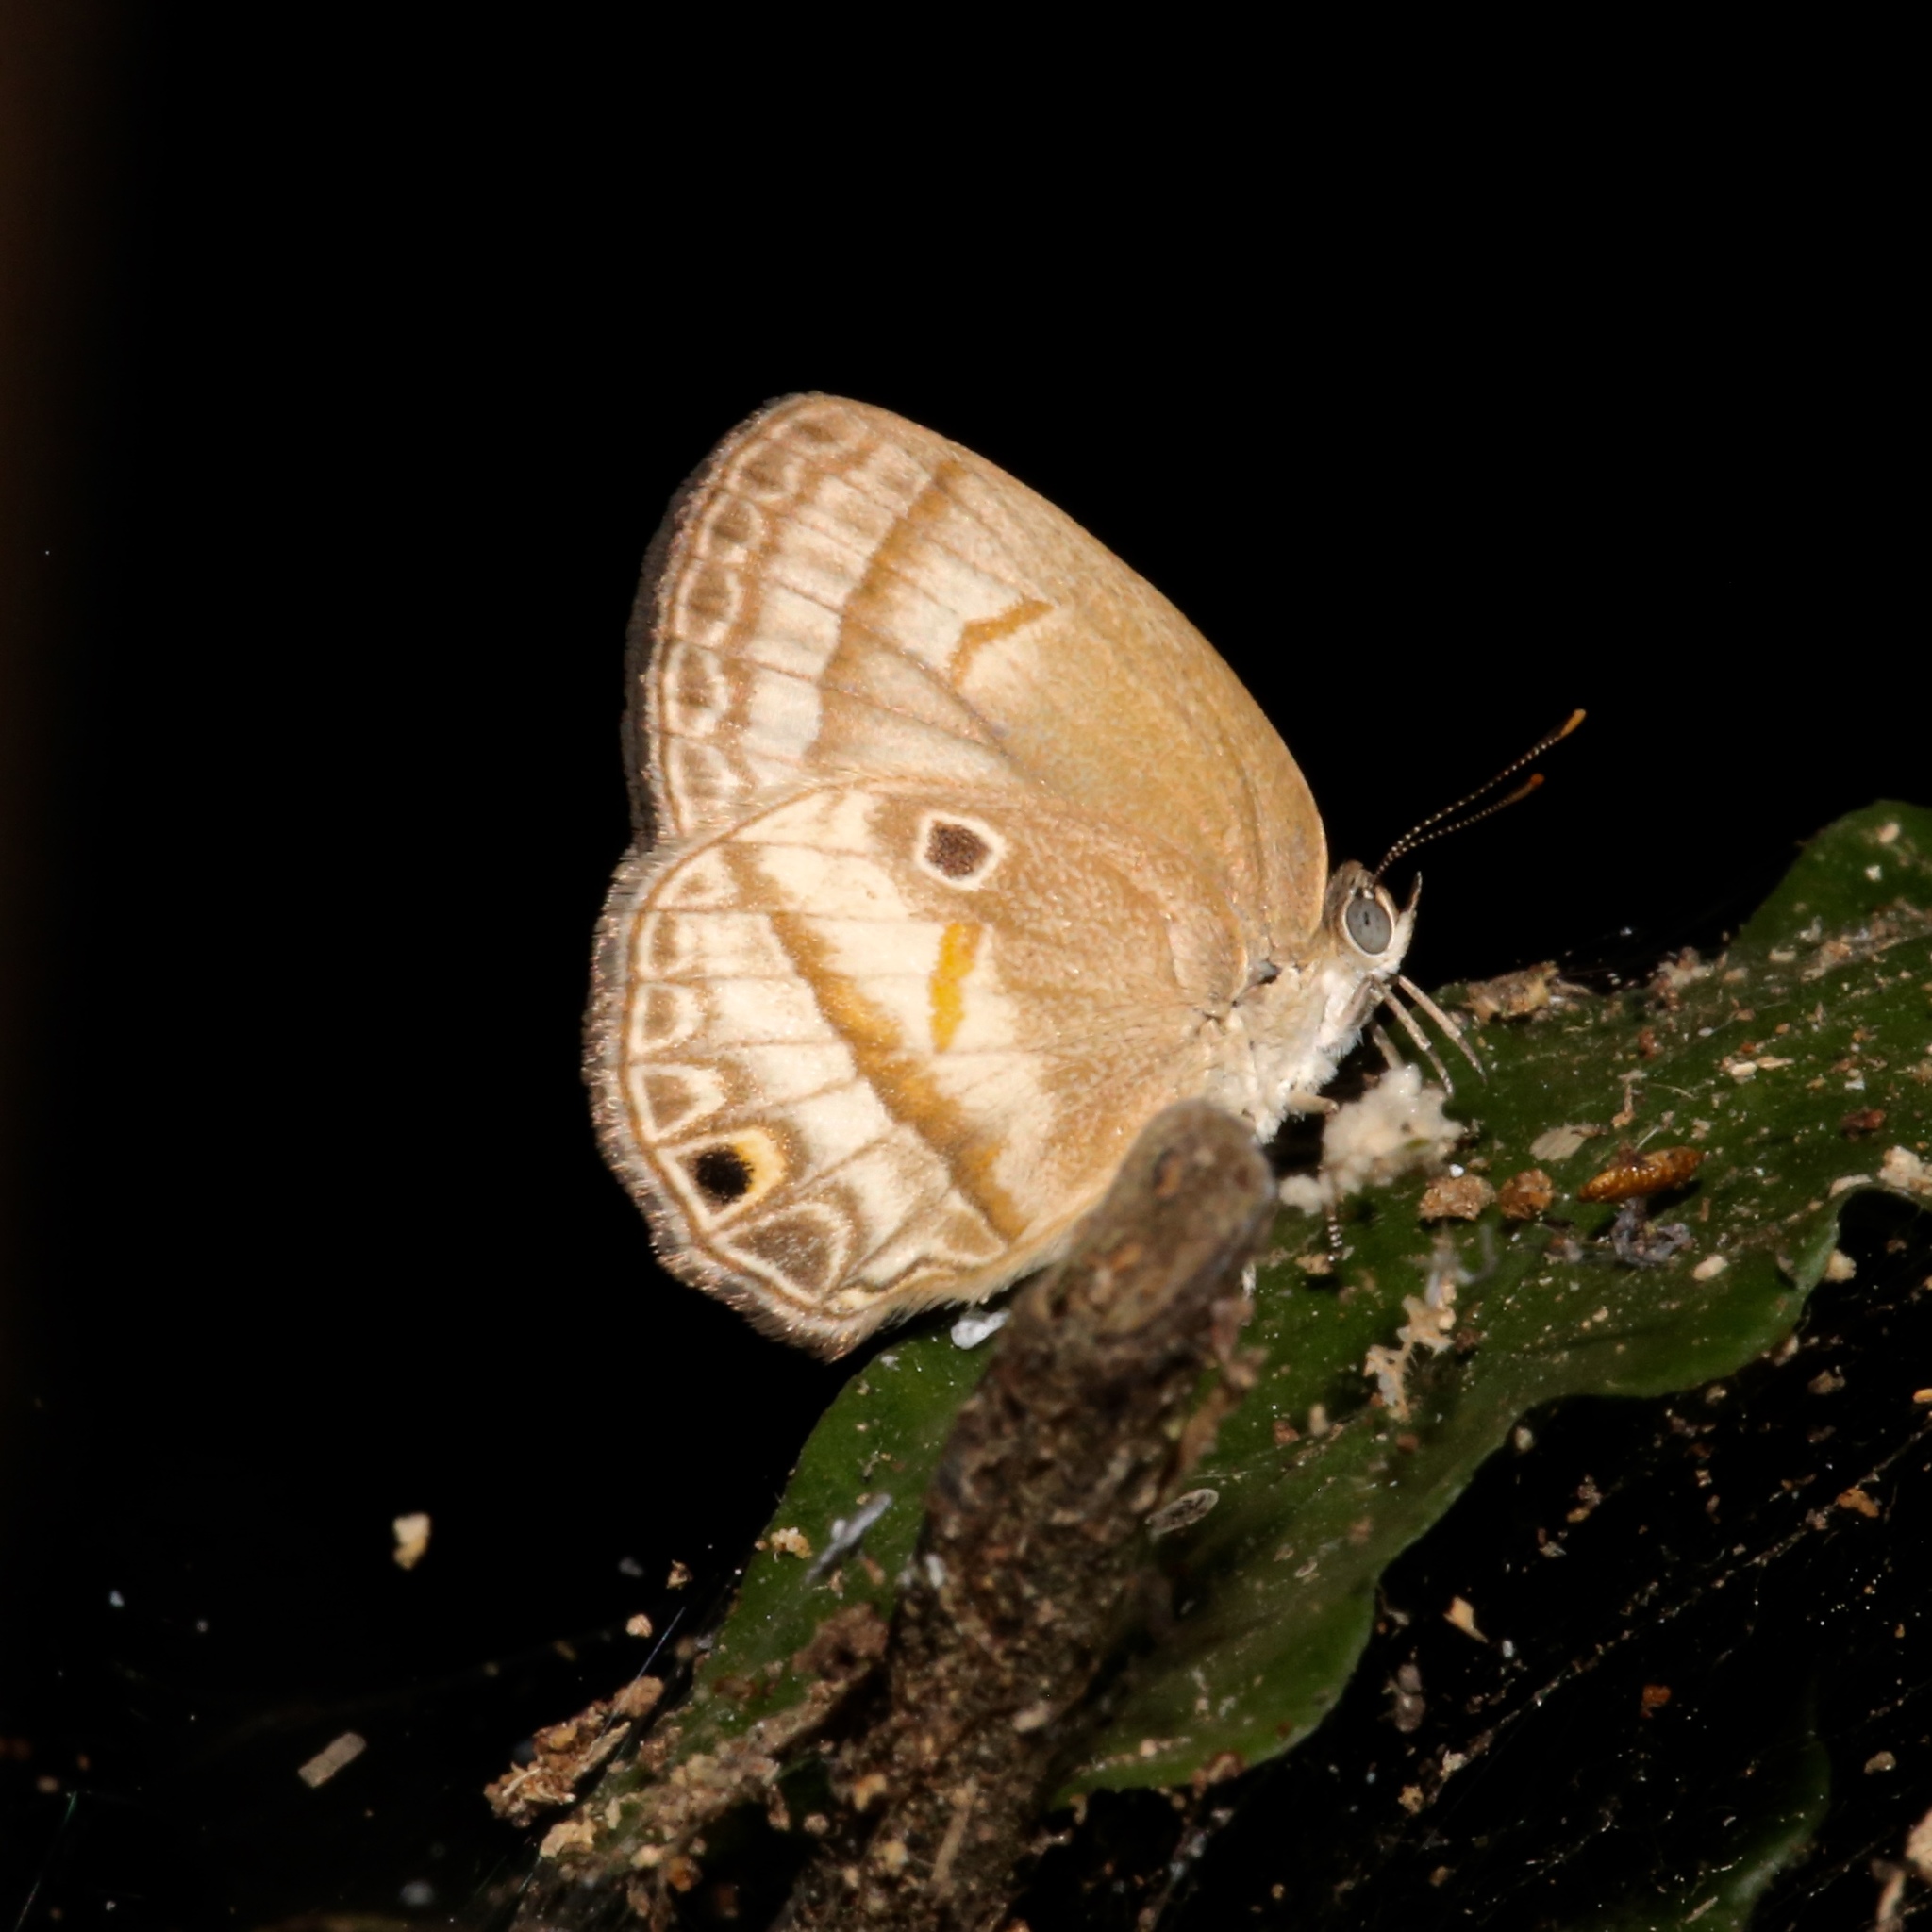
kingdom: Animalia
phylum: Arthropoda
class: Insecta
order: Lepidoptera
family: Lycaenidae
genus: Arawacus
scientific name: Arawacus
